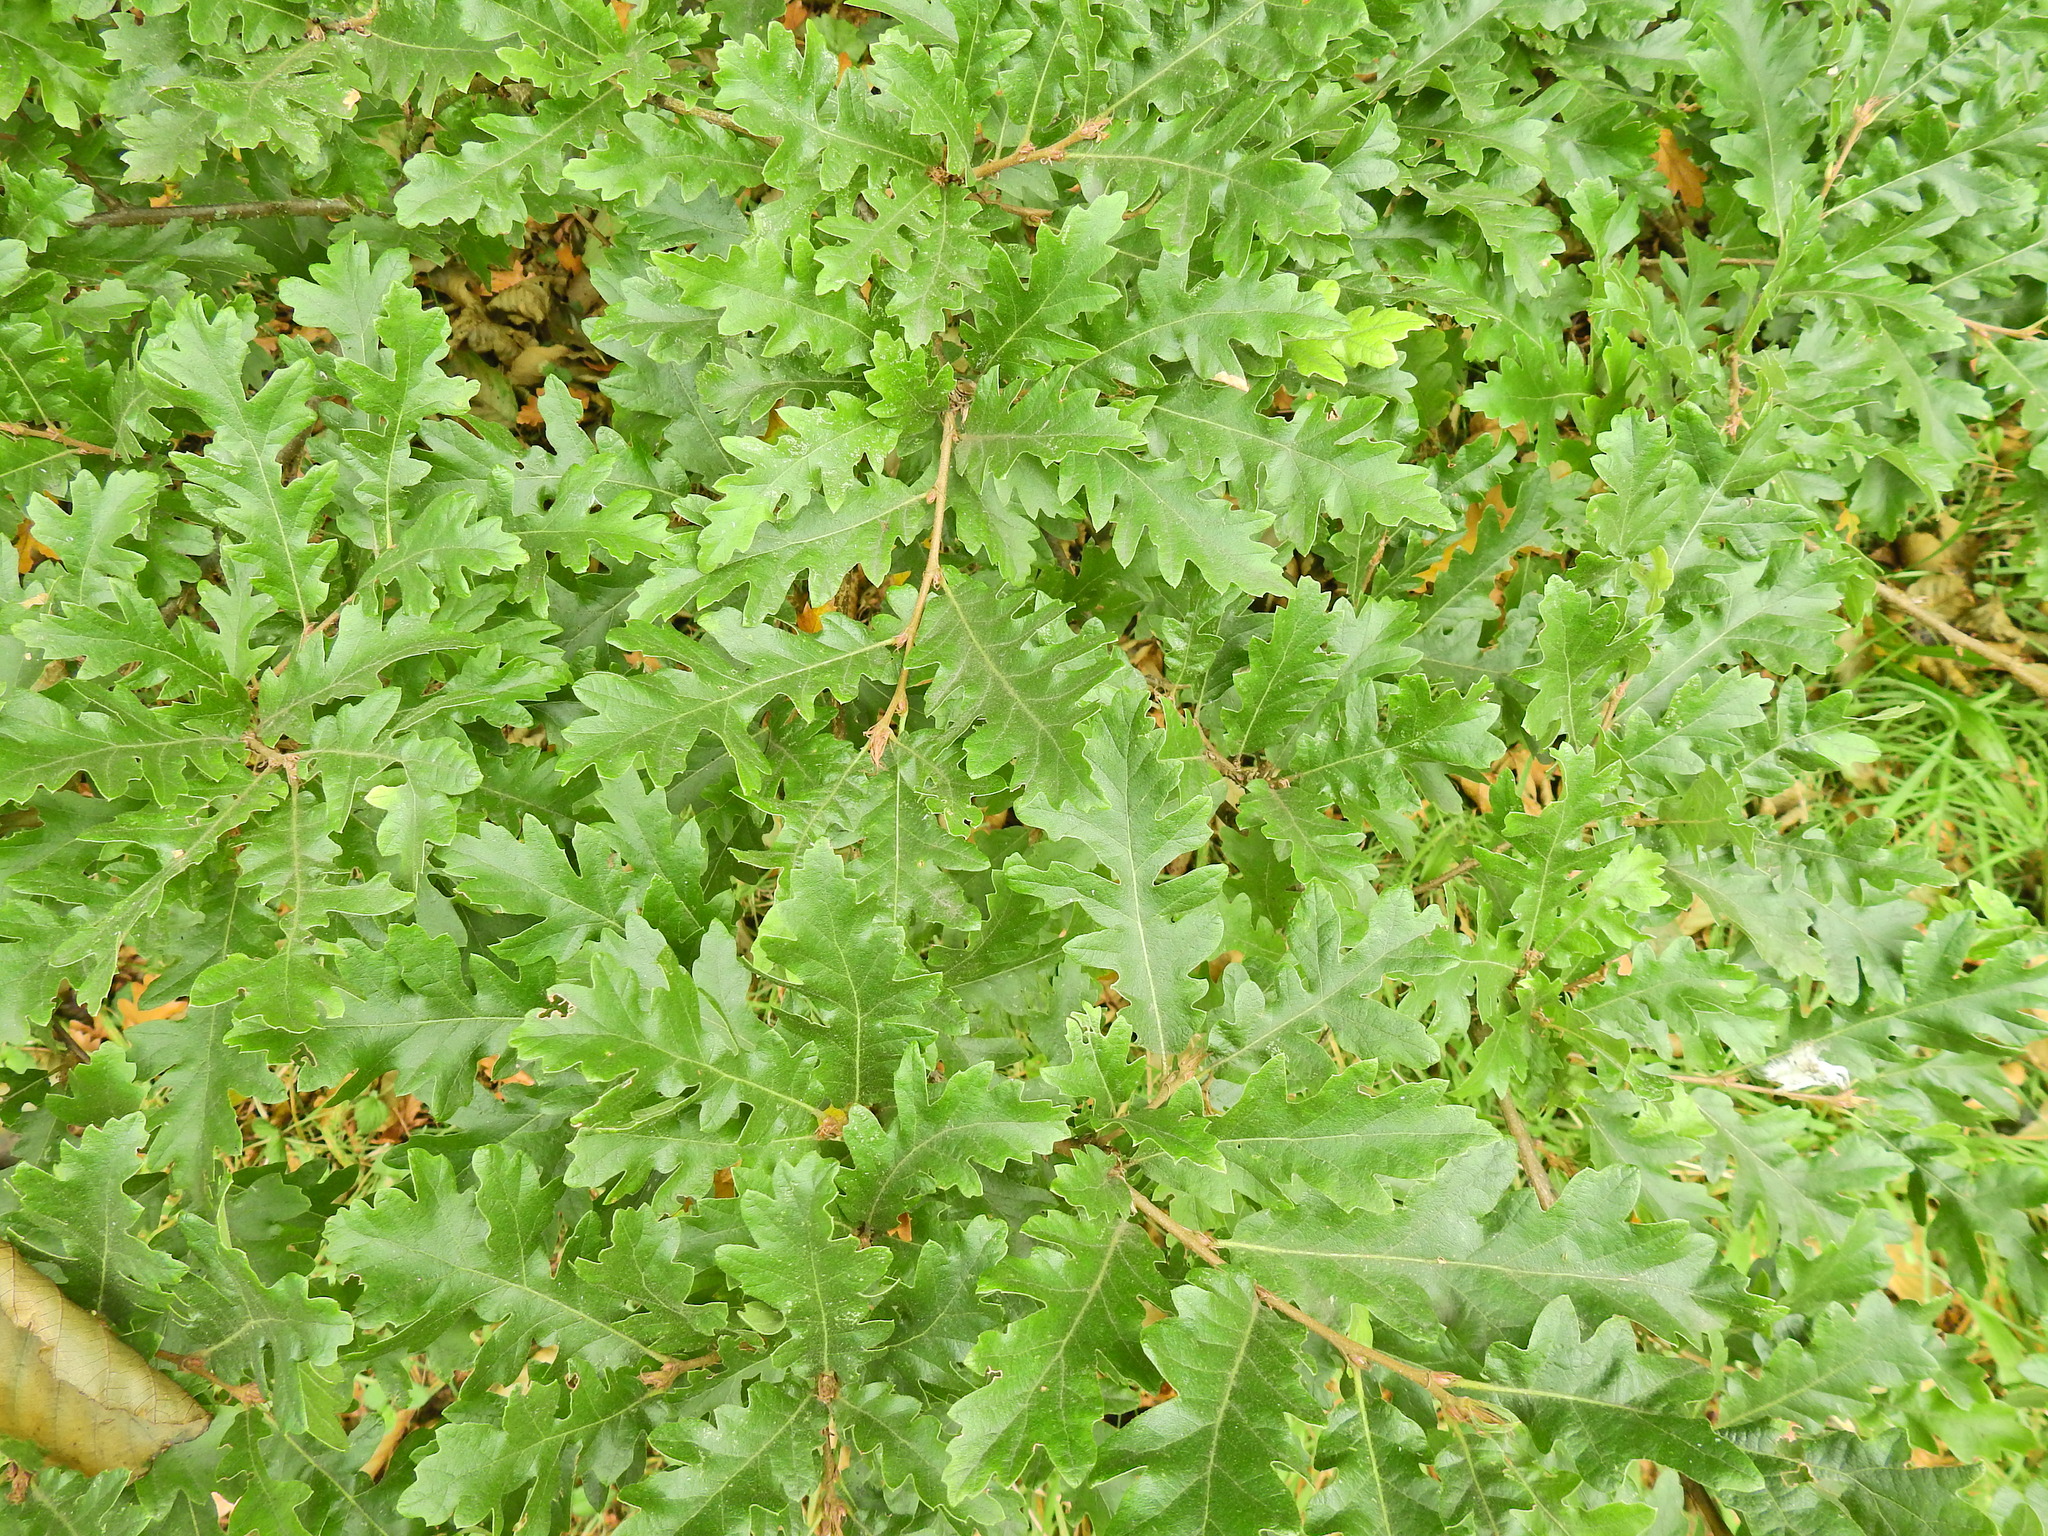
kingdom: Plantae
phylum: Tracheophyta
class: Magnoliopsida
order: Fagales
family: Fagaceae
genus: Quercus
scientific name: Quercus cerris
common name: Turkey oak
